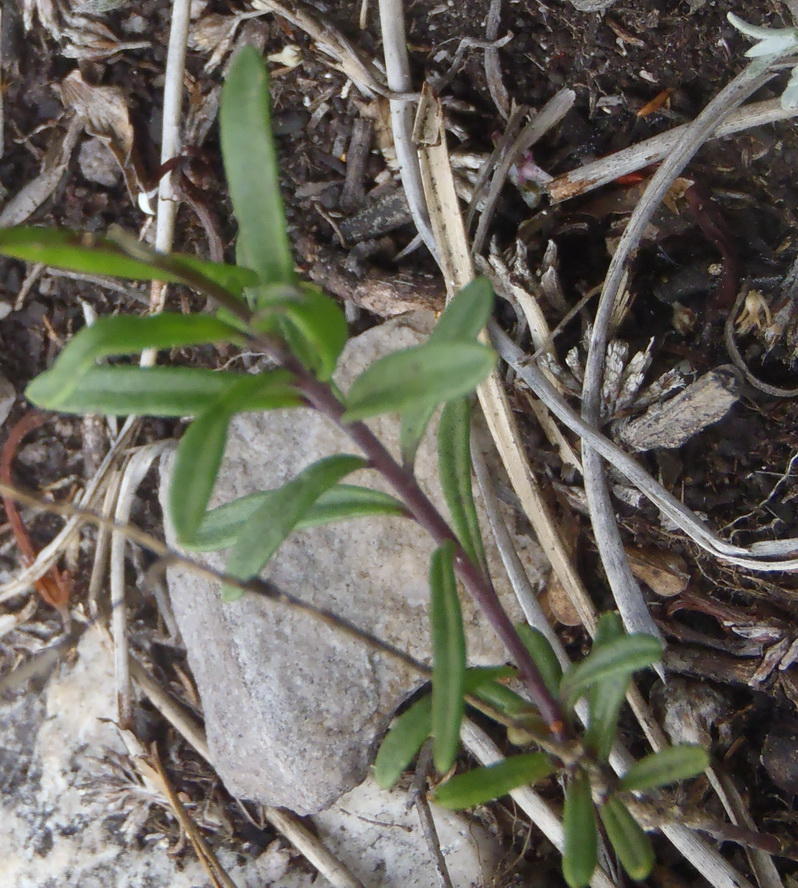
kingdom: Plantae
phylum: Tracheophyta
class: Magnoliopsida
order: Brassicales
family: Brassicaceae
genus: Heliophila
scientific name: Heliophila subulata
